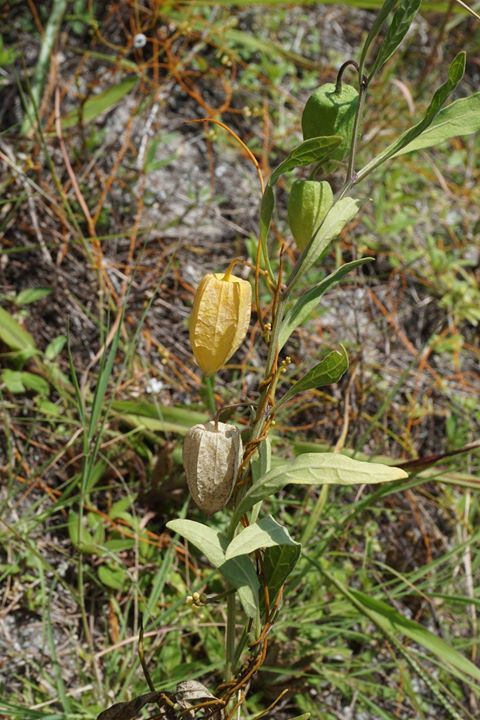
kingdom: Plantae
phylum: Tracheophyta
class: Magnoliopsida
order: Solanales
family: Solanaceae
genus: Physalis
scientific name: Physalis walteri
